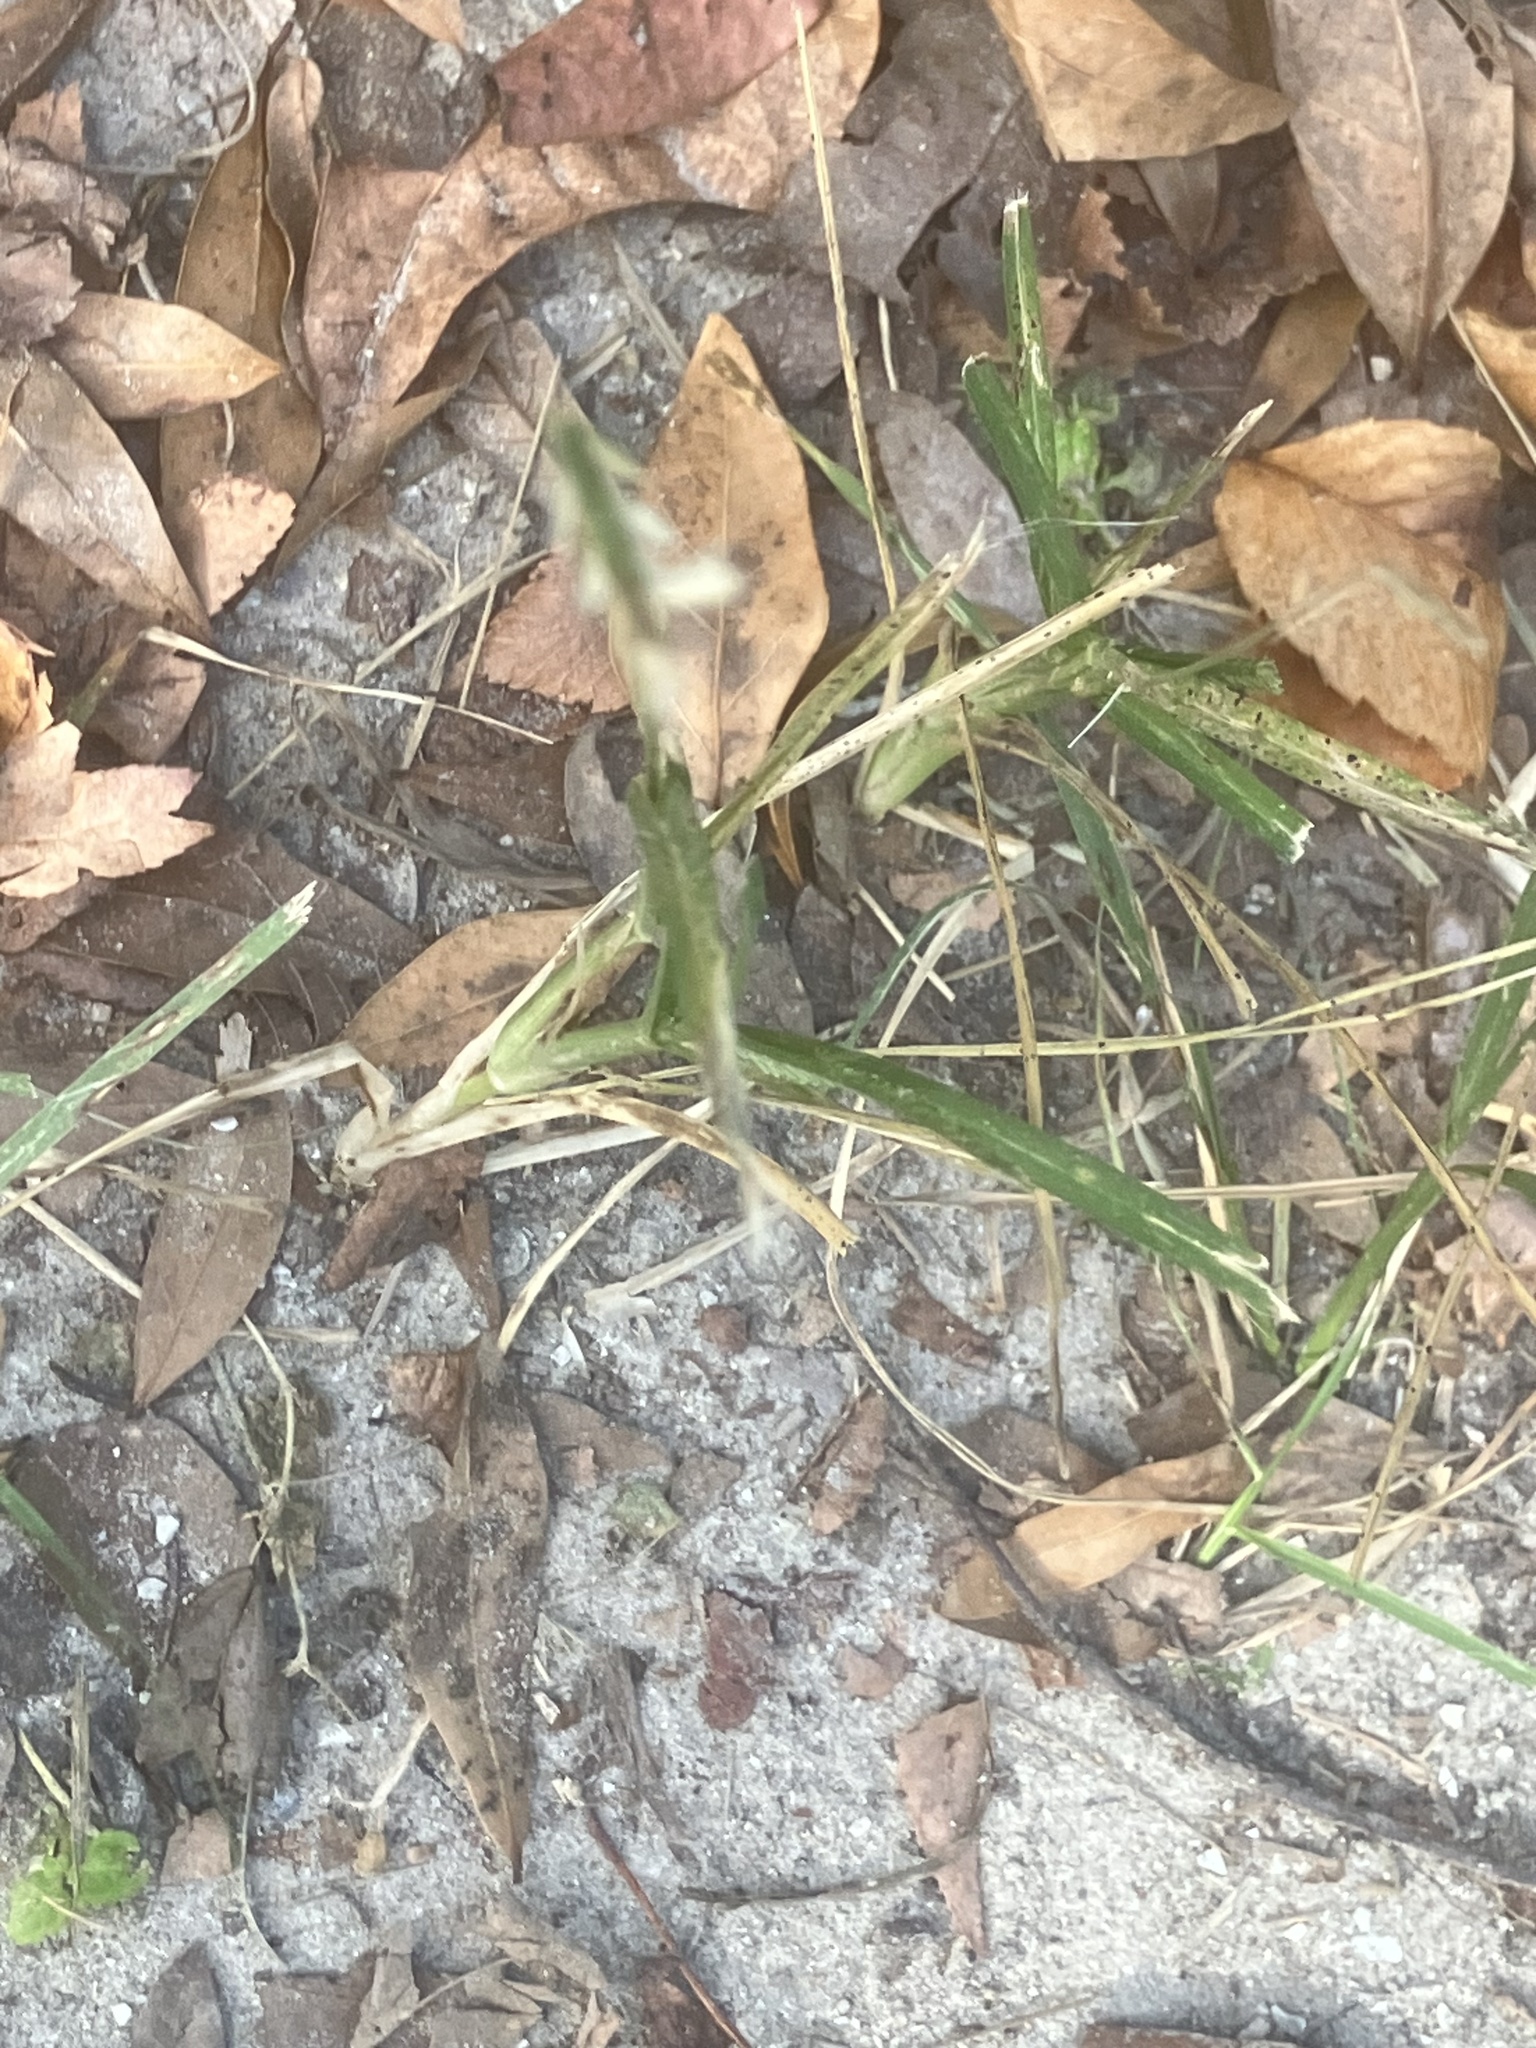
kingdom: Plantae
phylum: Tracheophyta
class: Liliopsida
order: Poales
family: Poaceae
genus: Eleusine
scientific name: Eleusine indica
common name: Yard-grass
